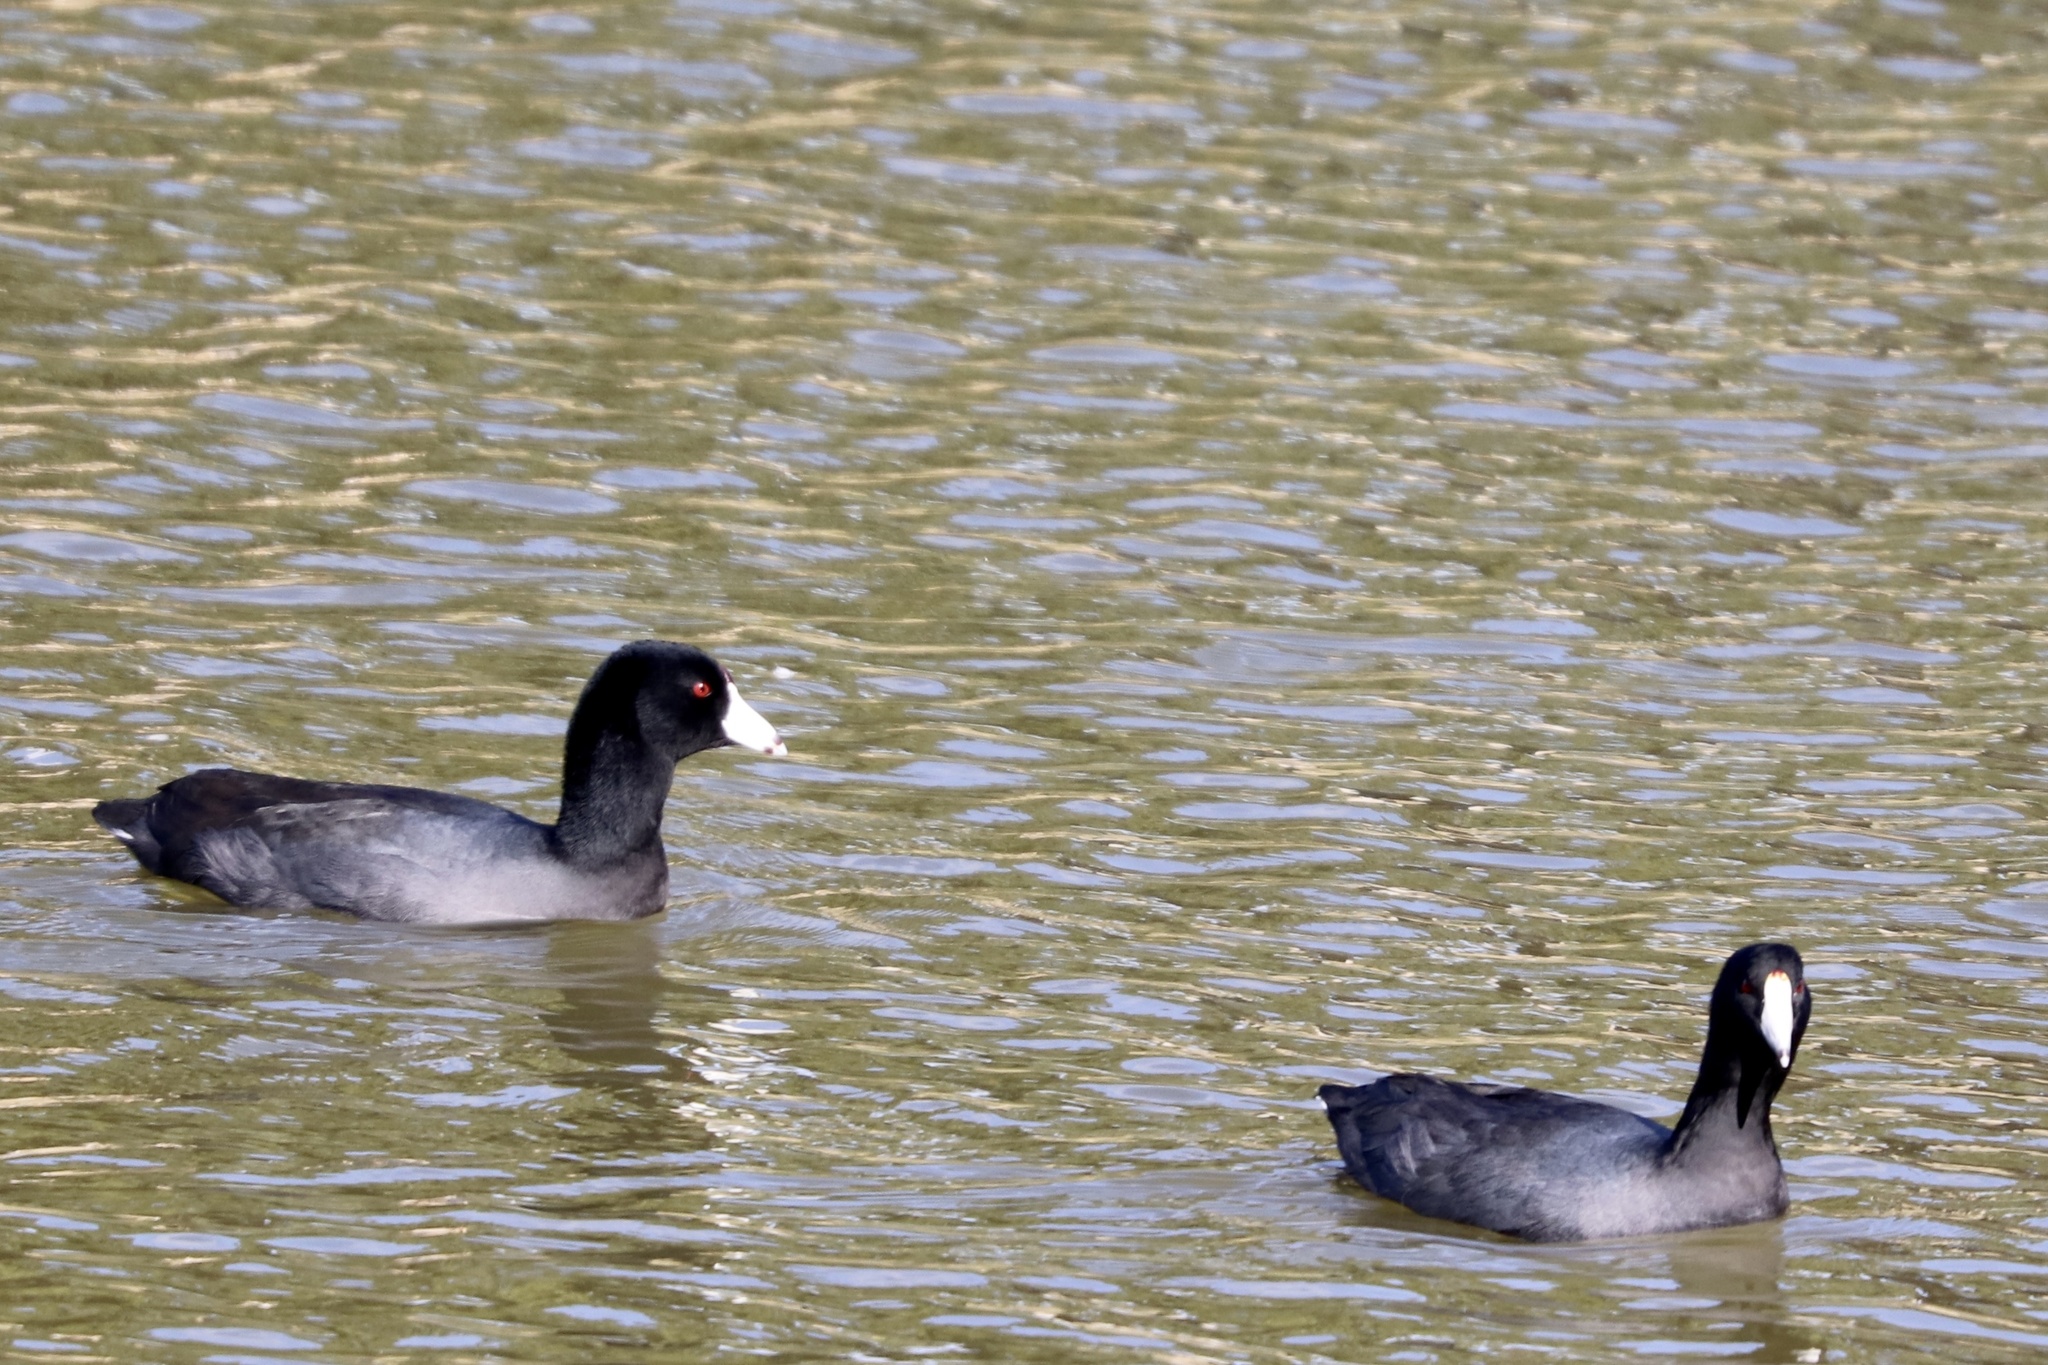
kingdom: Animalia
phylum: Chordata
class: Aves
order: Gruiformes
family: Rallidae
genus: Fulica
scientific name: Fulica americana
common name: American coot
